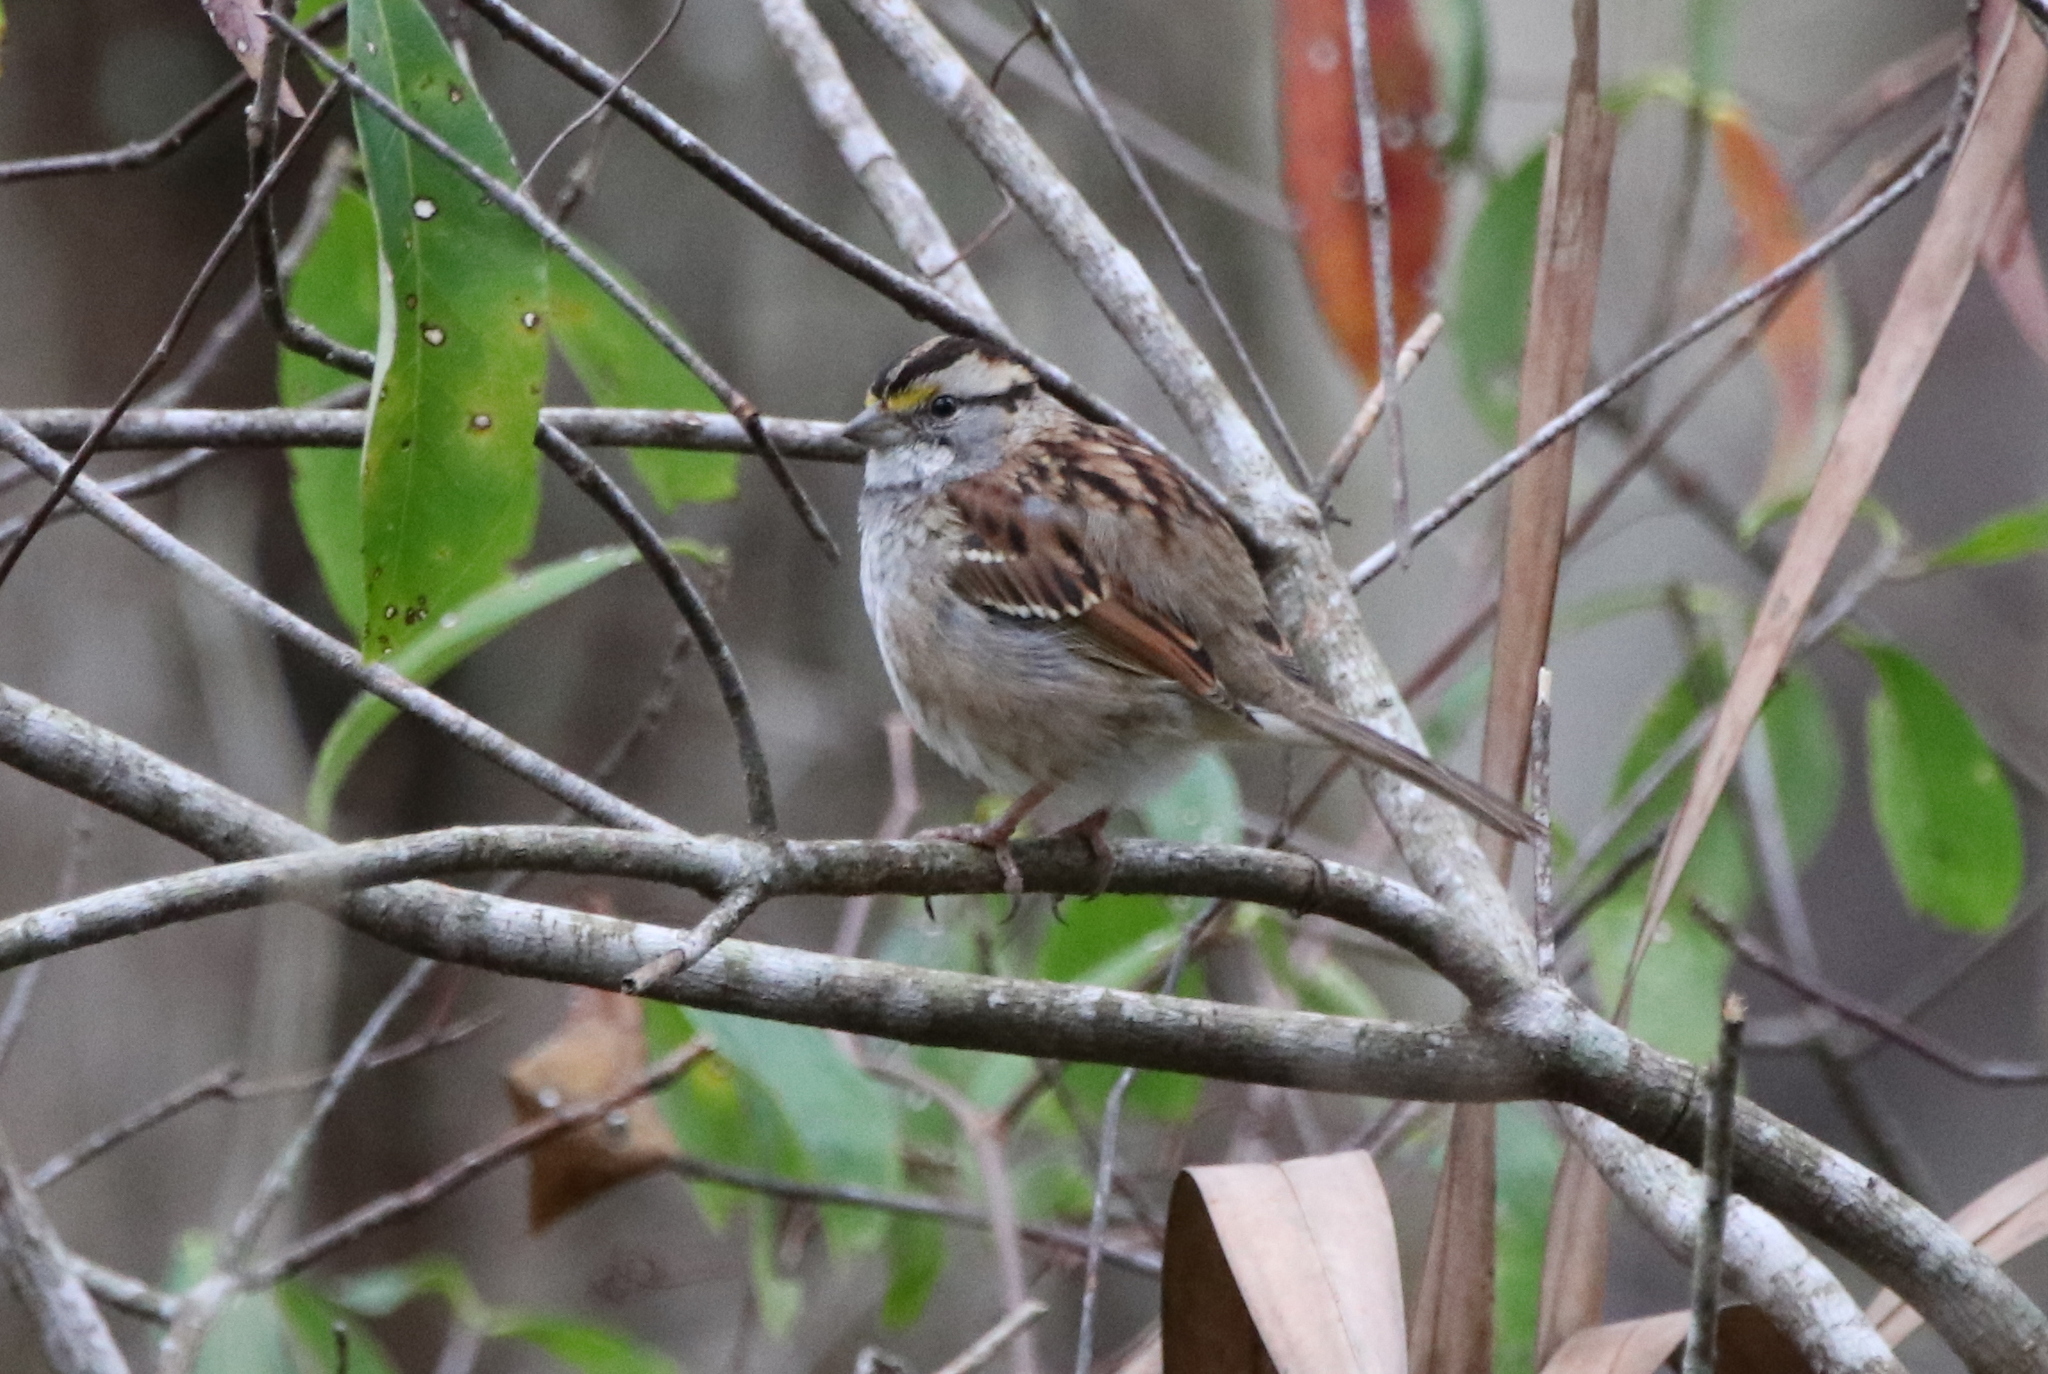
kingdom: Animalia
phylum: Chordata
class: Aves
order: Passeriformes
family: Passerellidae
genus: Zonotrichia
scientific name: Zonotrichia albicollis
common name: White-throated sparrow
